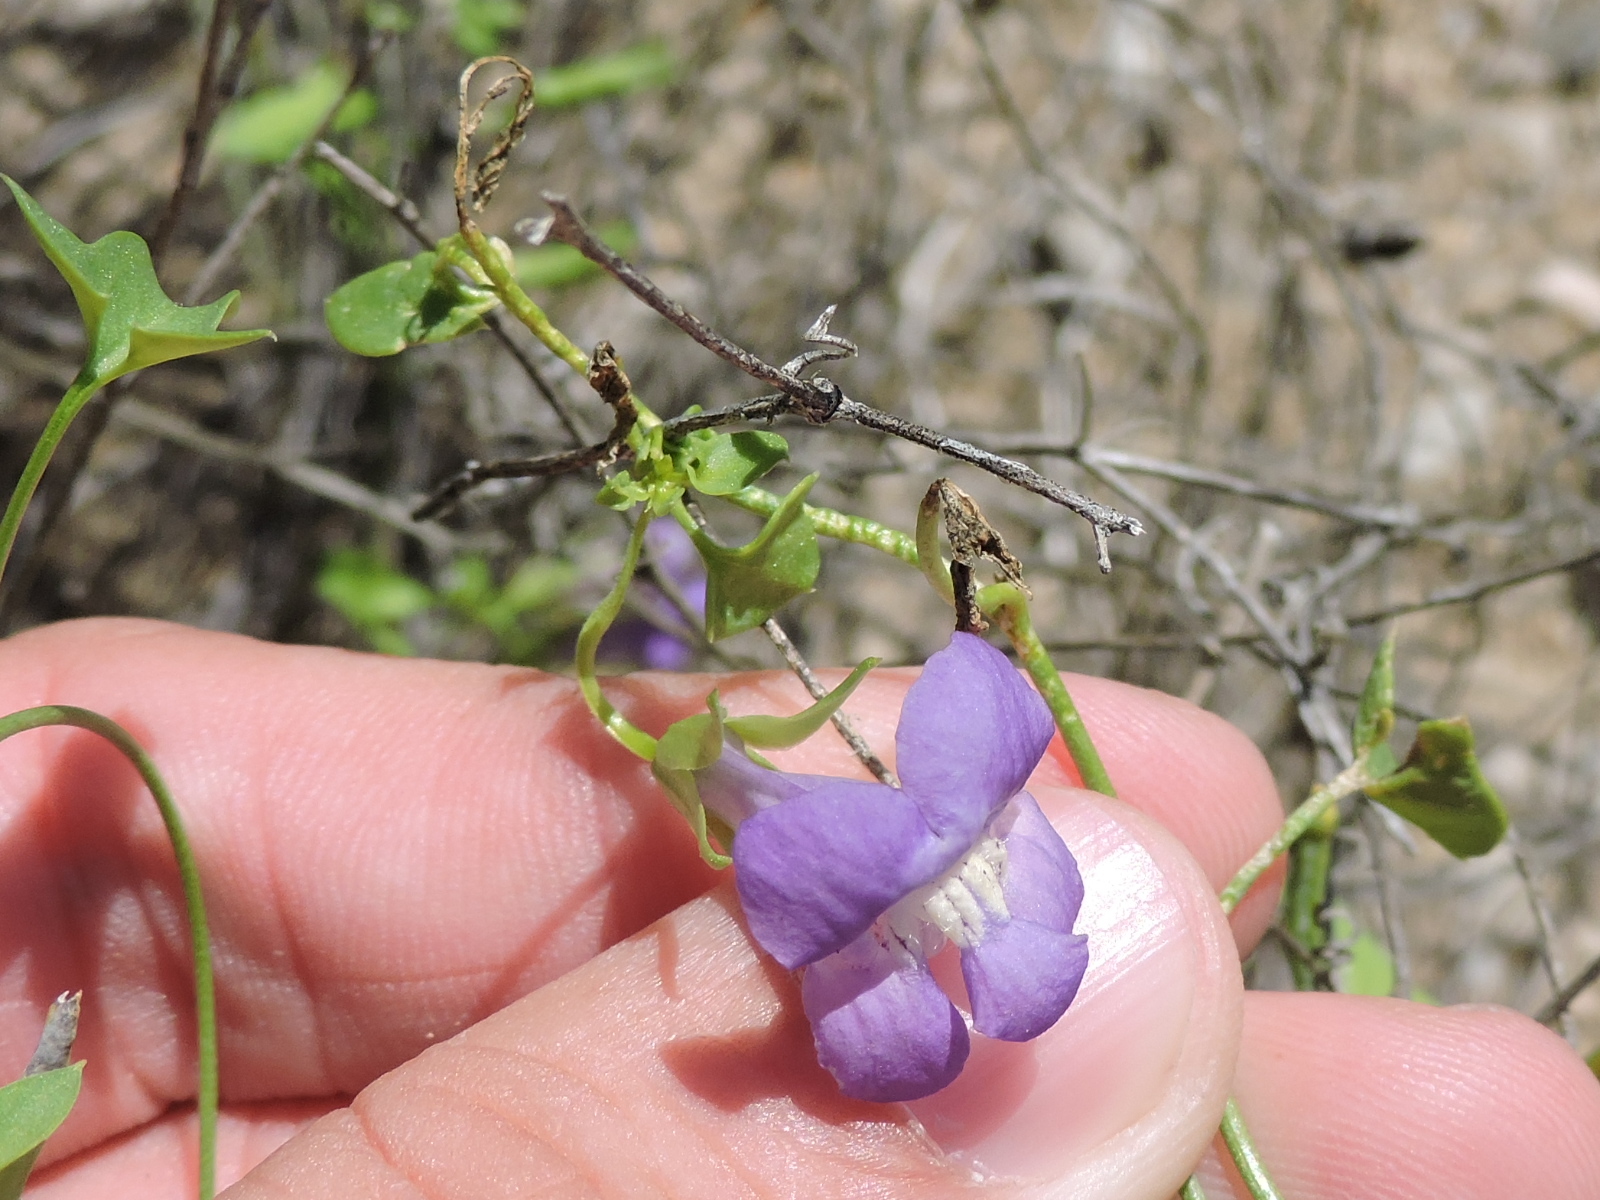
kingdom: Plantae
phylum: Tracheophyta
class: Magnoliopsida
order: Lamiales
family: Plantaginaceae
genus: Maurandella
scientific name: Maurandella antirrhiniflora
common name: Violet twining-snapdragon
